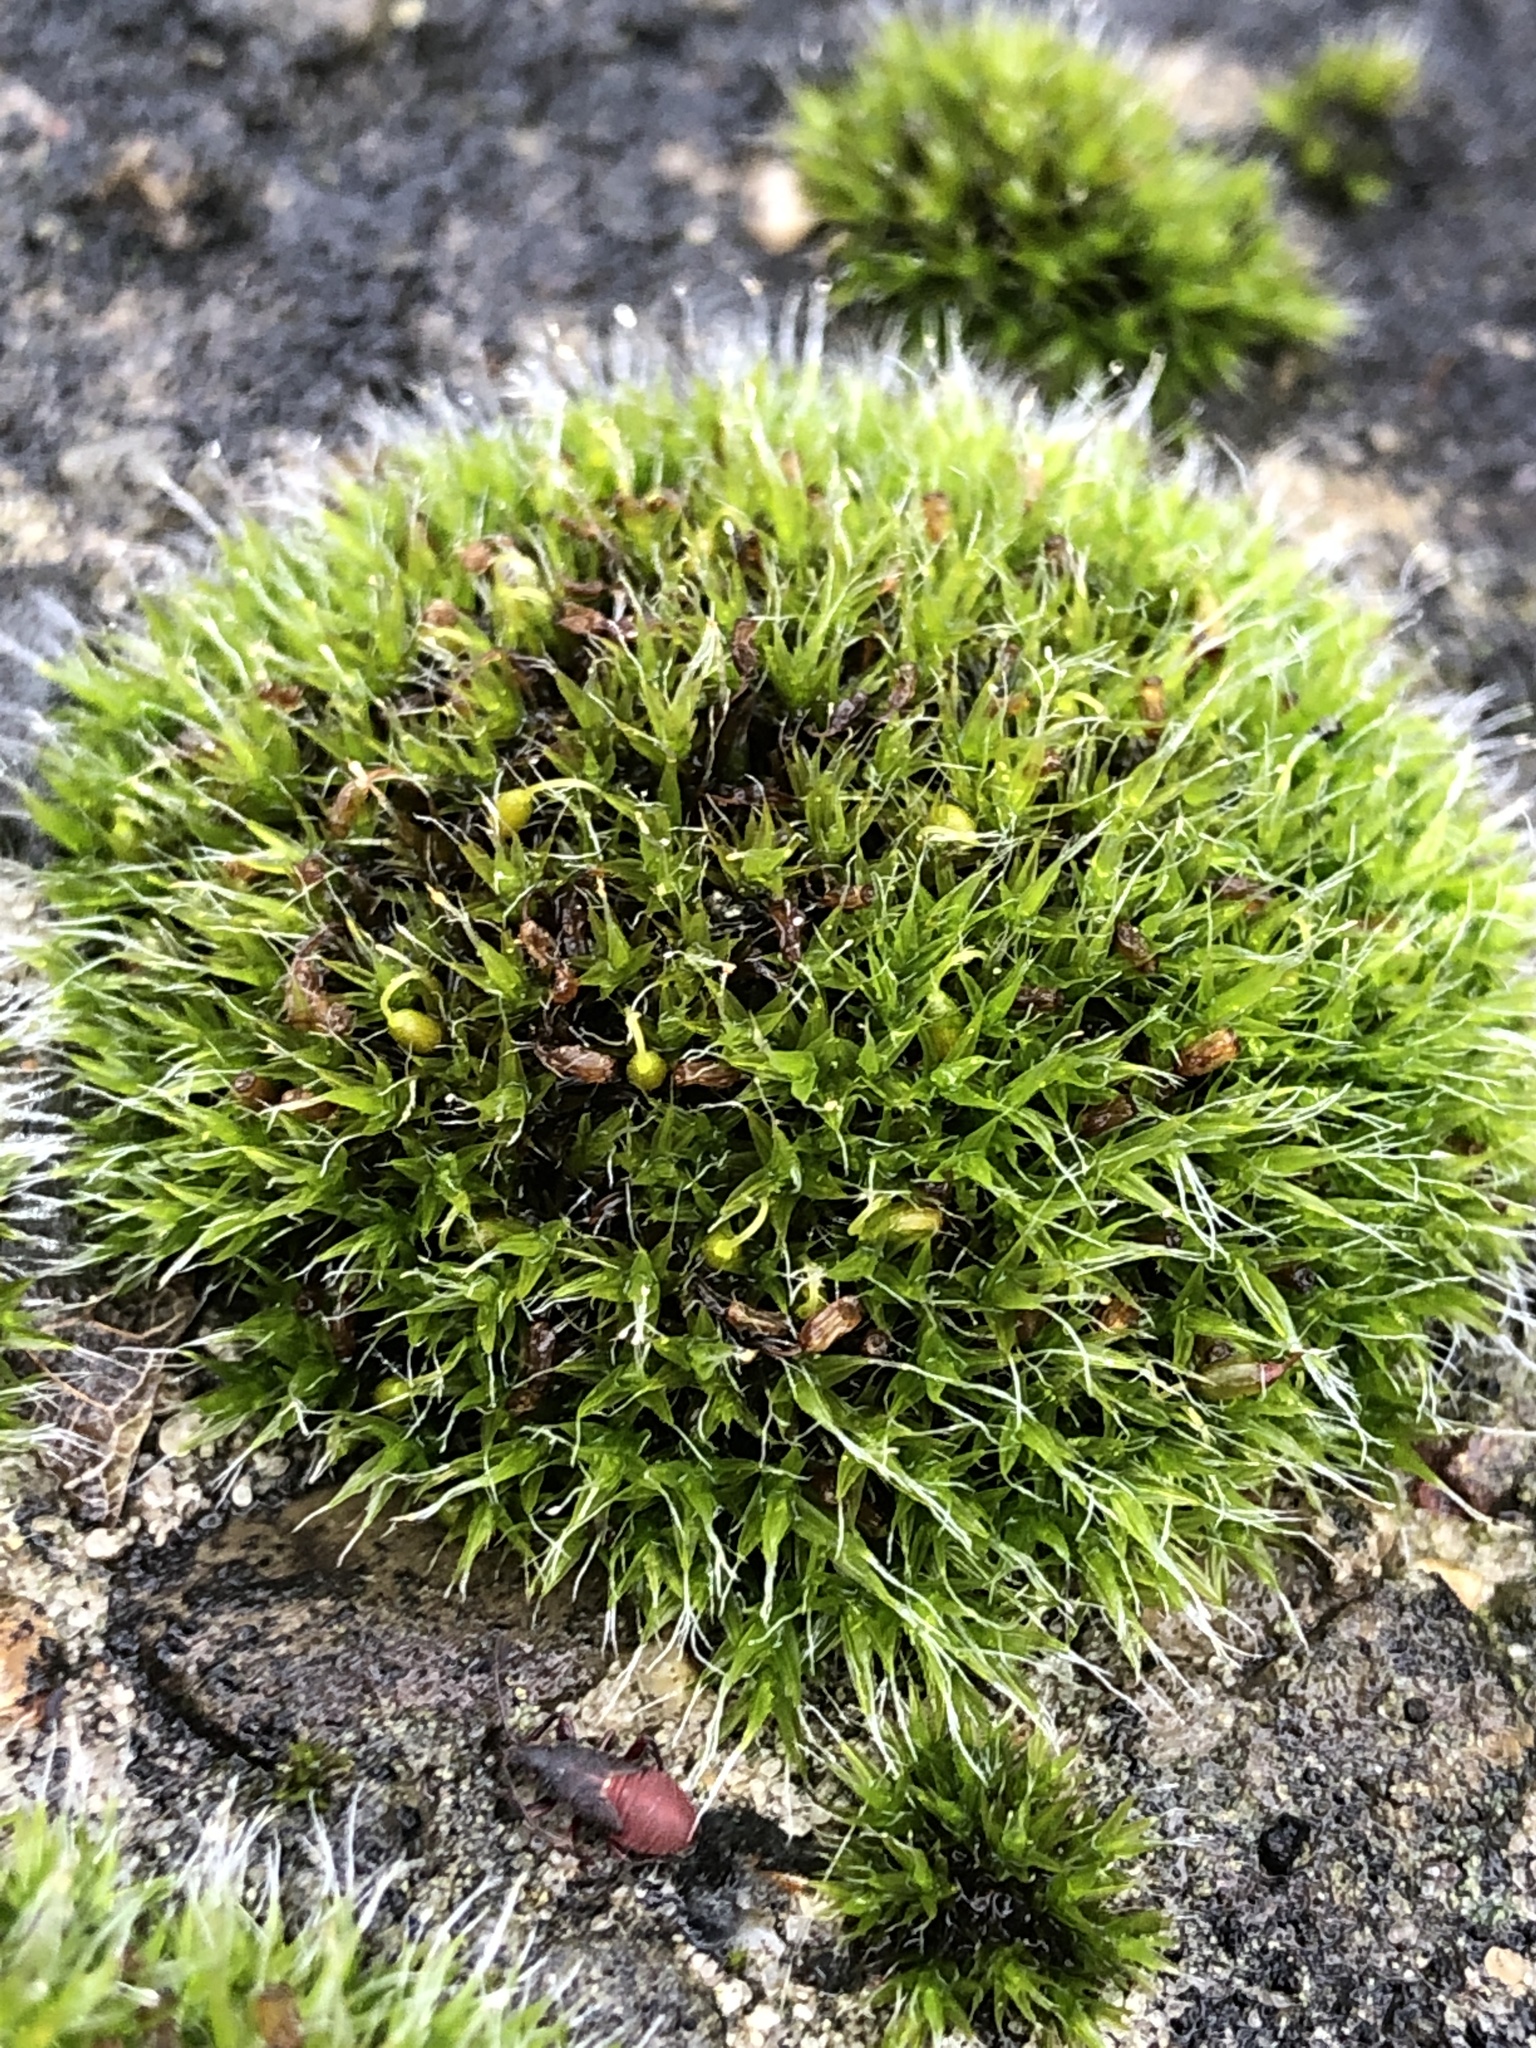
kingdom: Plantae
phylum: Bryophyta
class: Bryopsida
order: Grimmiales
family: Grimmiaceae
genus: Grimmia
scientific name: Grimmia pulvinata
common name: Grey-cushioned grimmia
